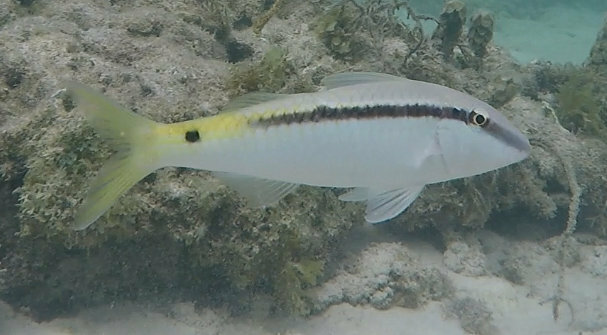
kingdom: Animalia
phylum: Chordata
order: Perciformes
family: Mullidae
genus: Parupeneus
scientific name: Parupeneus forsskali
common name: Red sea goatfish
